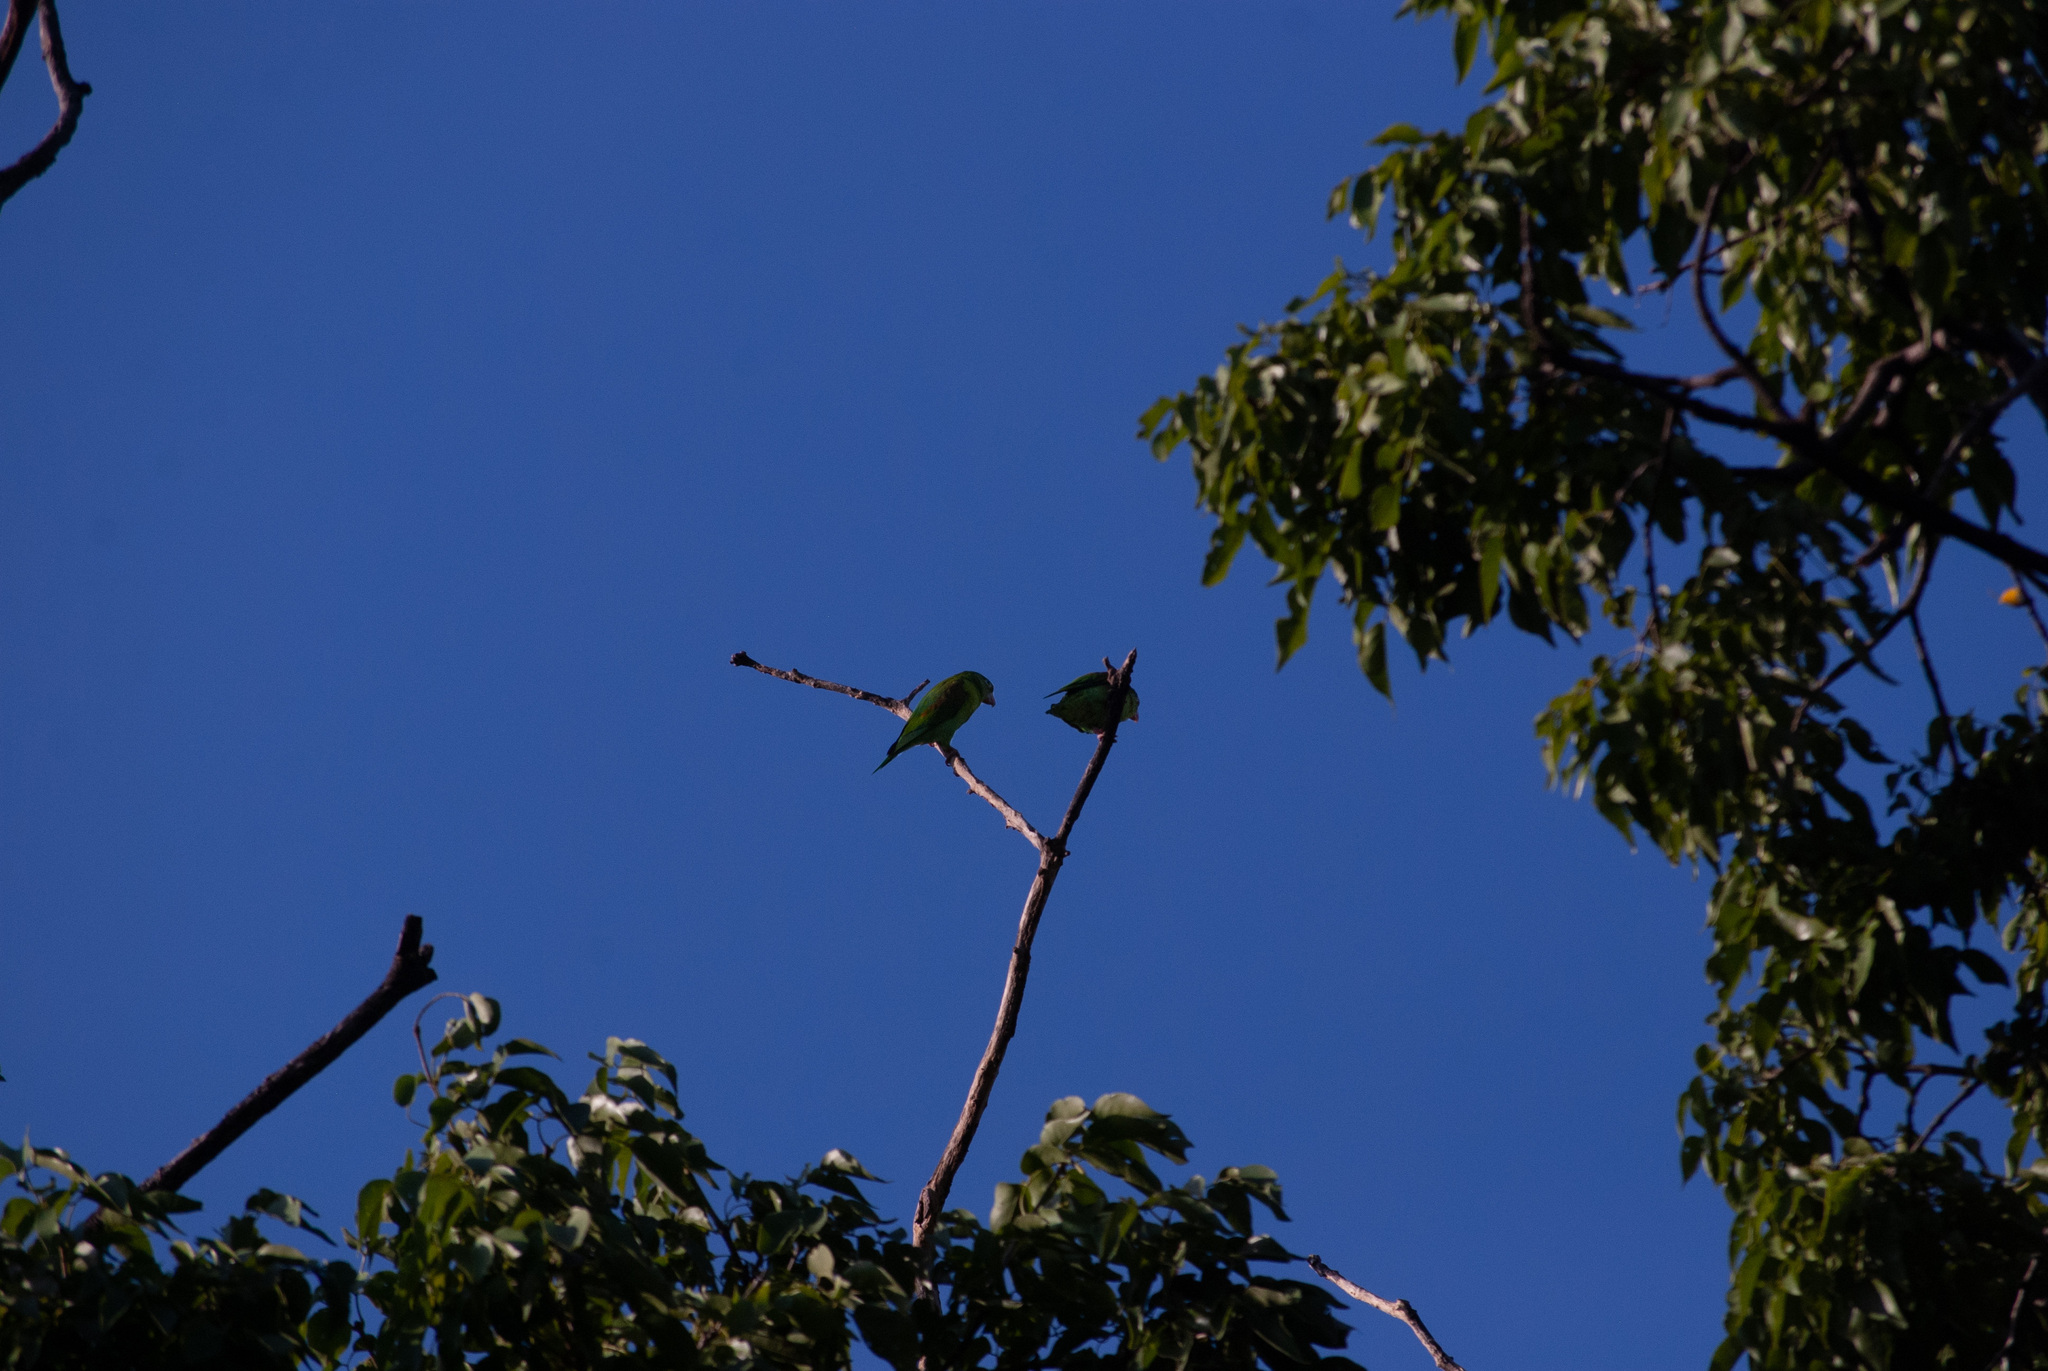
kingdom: Animalia
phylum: Chordata
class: Aves
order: Psittaciformes
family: Psittacidae
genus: Brotogeris
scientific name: Brotogeris jugularis
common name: Orange-chinned parakeet
